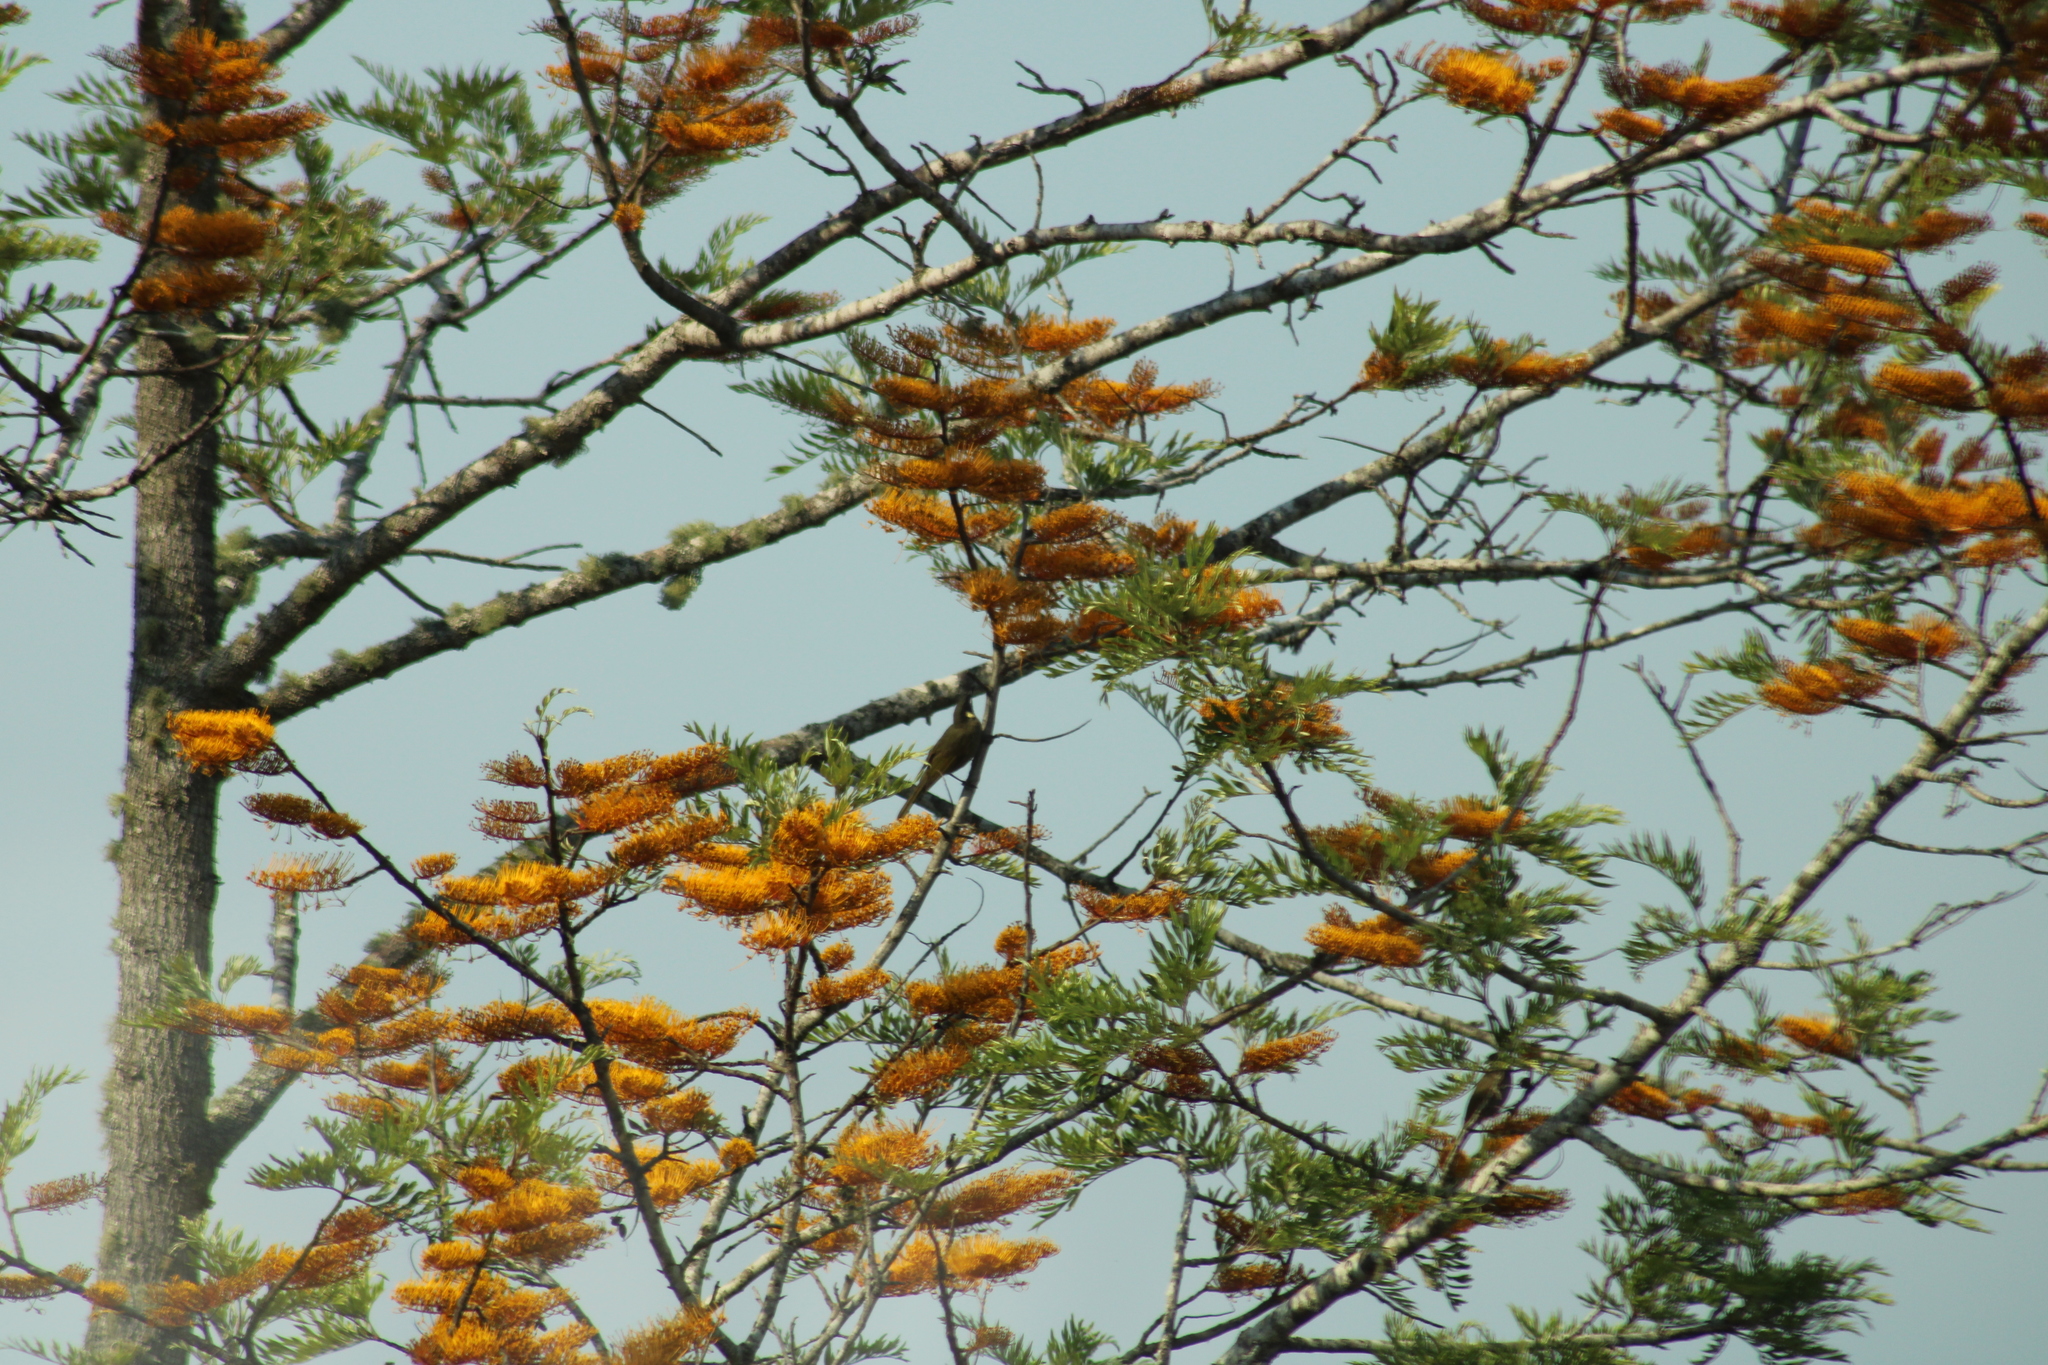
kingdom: Plantae
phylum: Tracheophyta
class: Magnoliopsida
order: Proteales
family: Proteaceae
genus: Grevillea
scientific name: Grevillea robusta
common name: Silkoak
